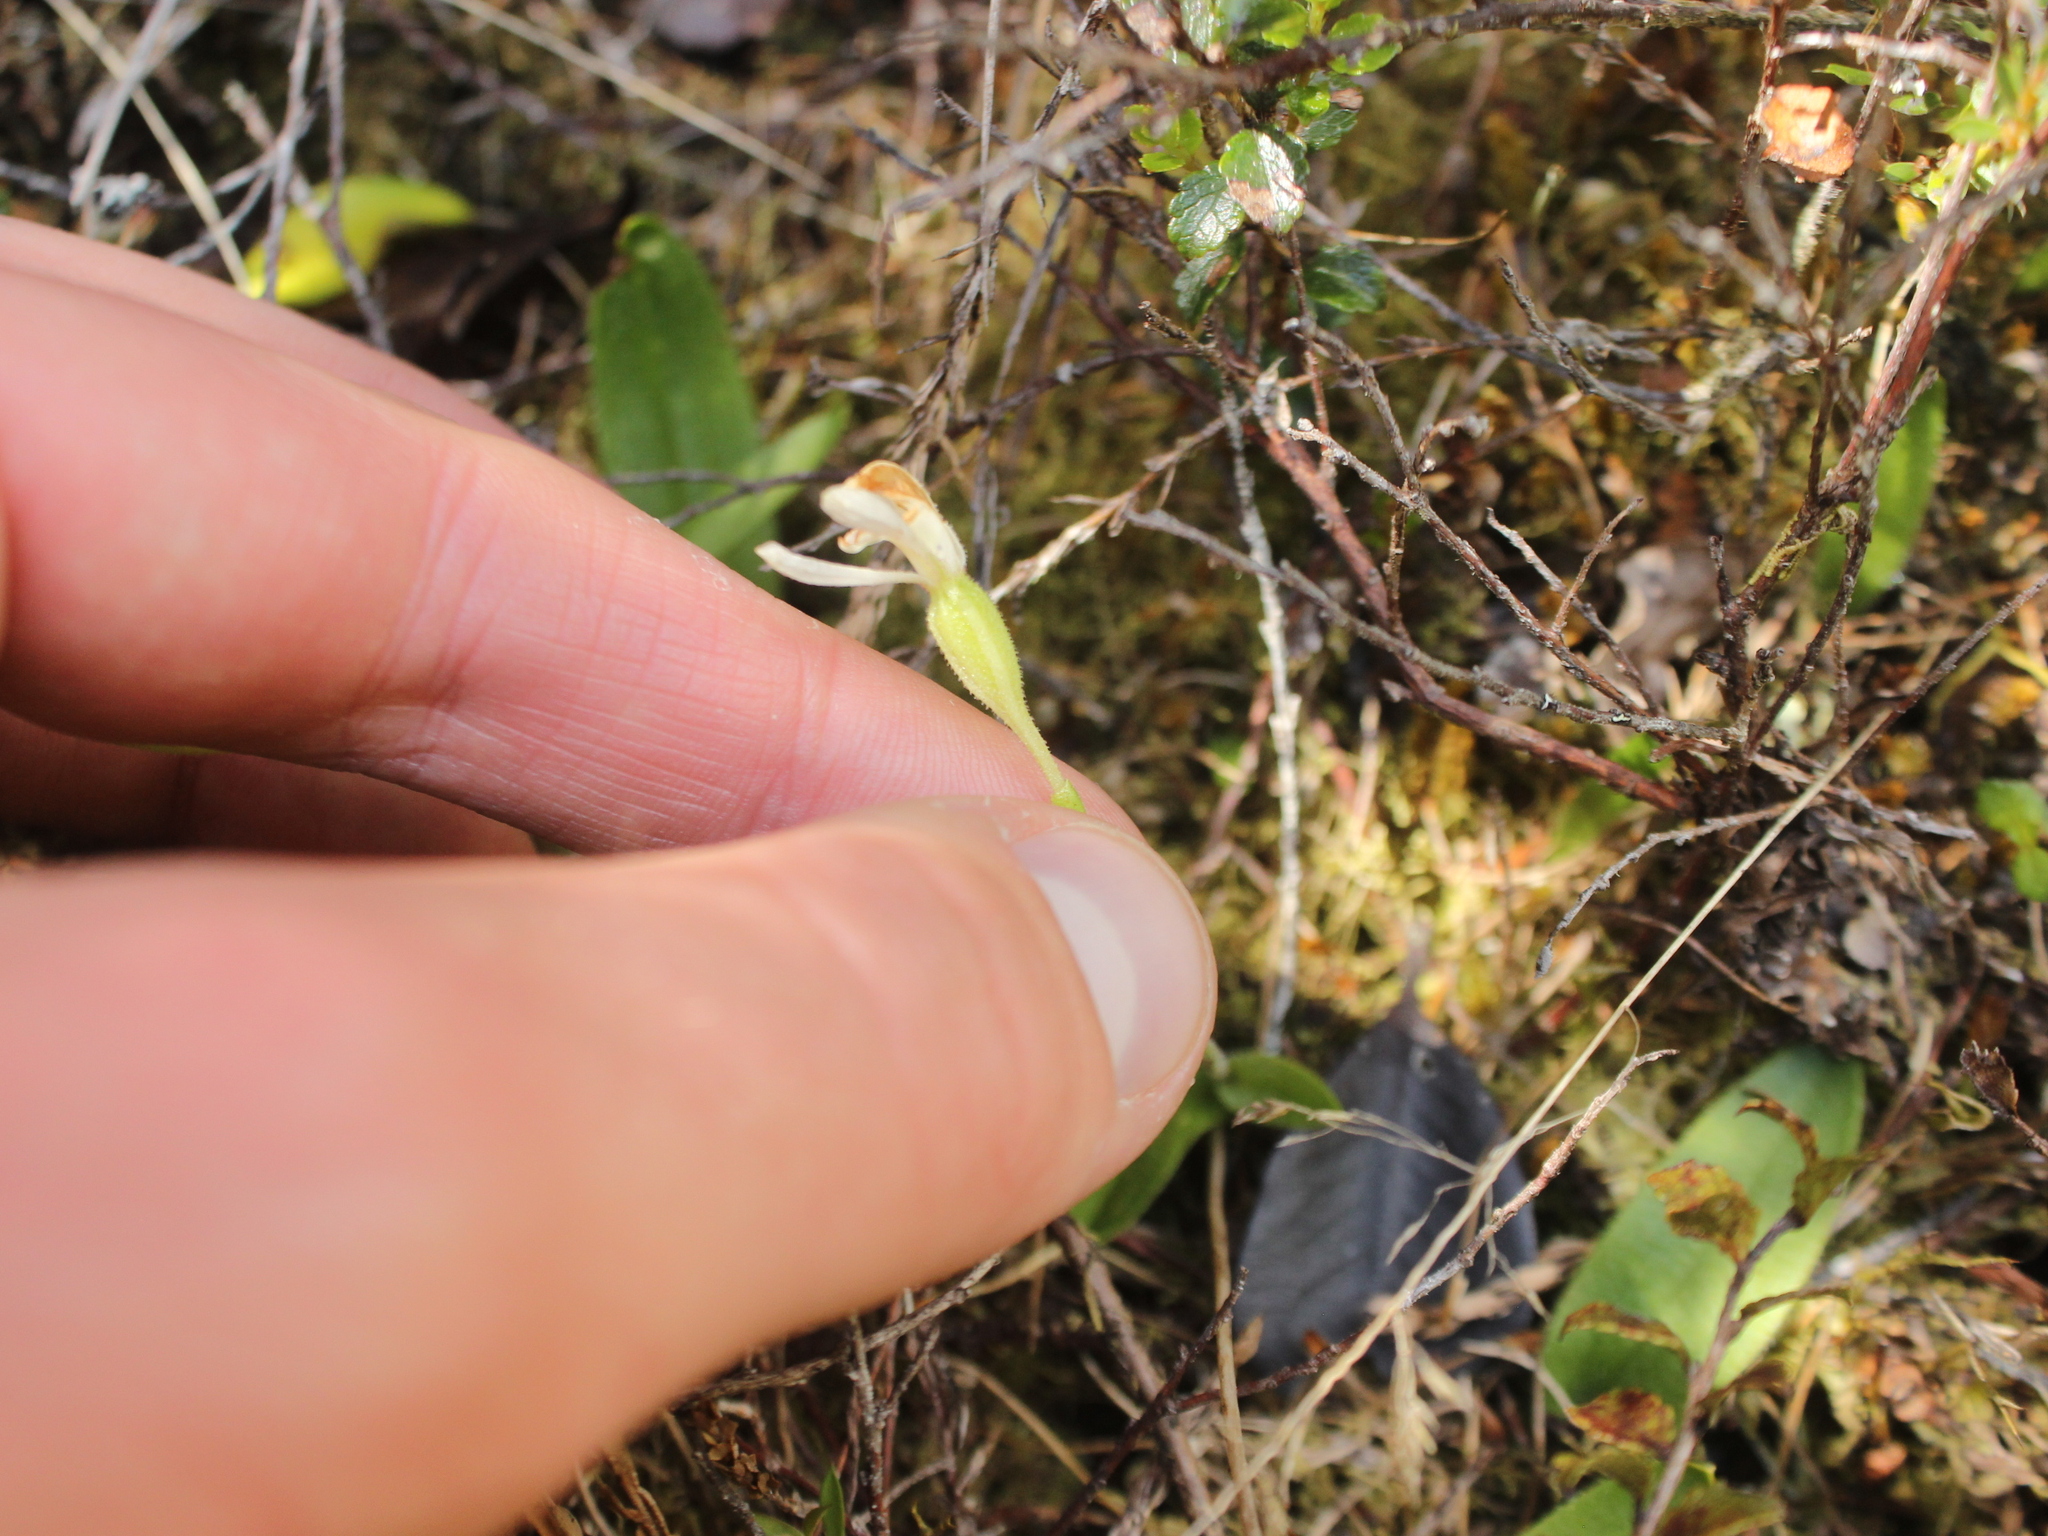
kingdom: Plantae
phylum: Tracheophyta
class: Liliopsida
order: Asparagales
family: Orchidaceae
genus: Aporostylis
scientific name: Aporostylis bifolia
